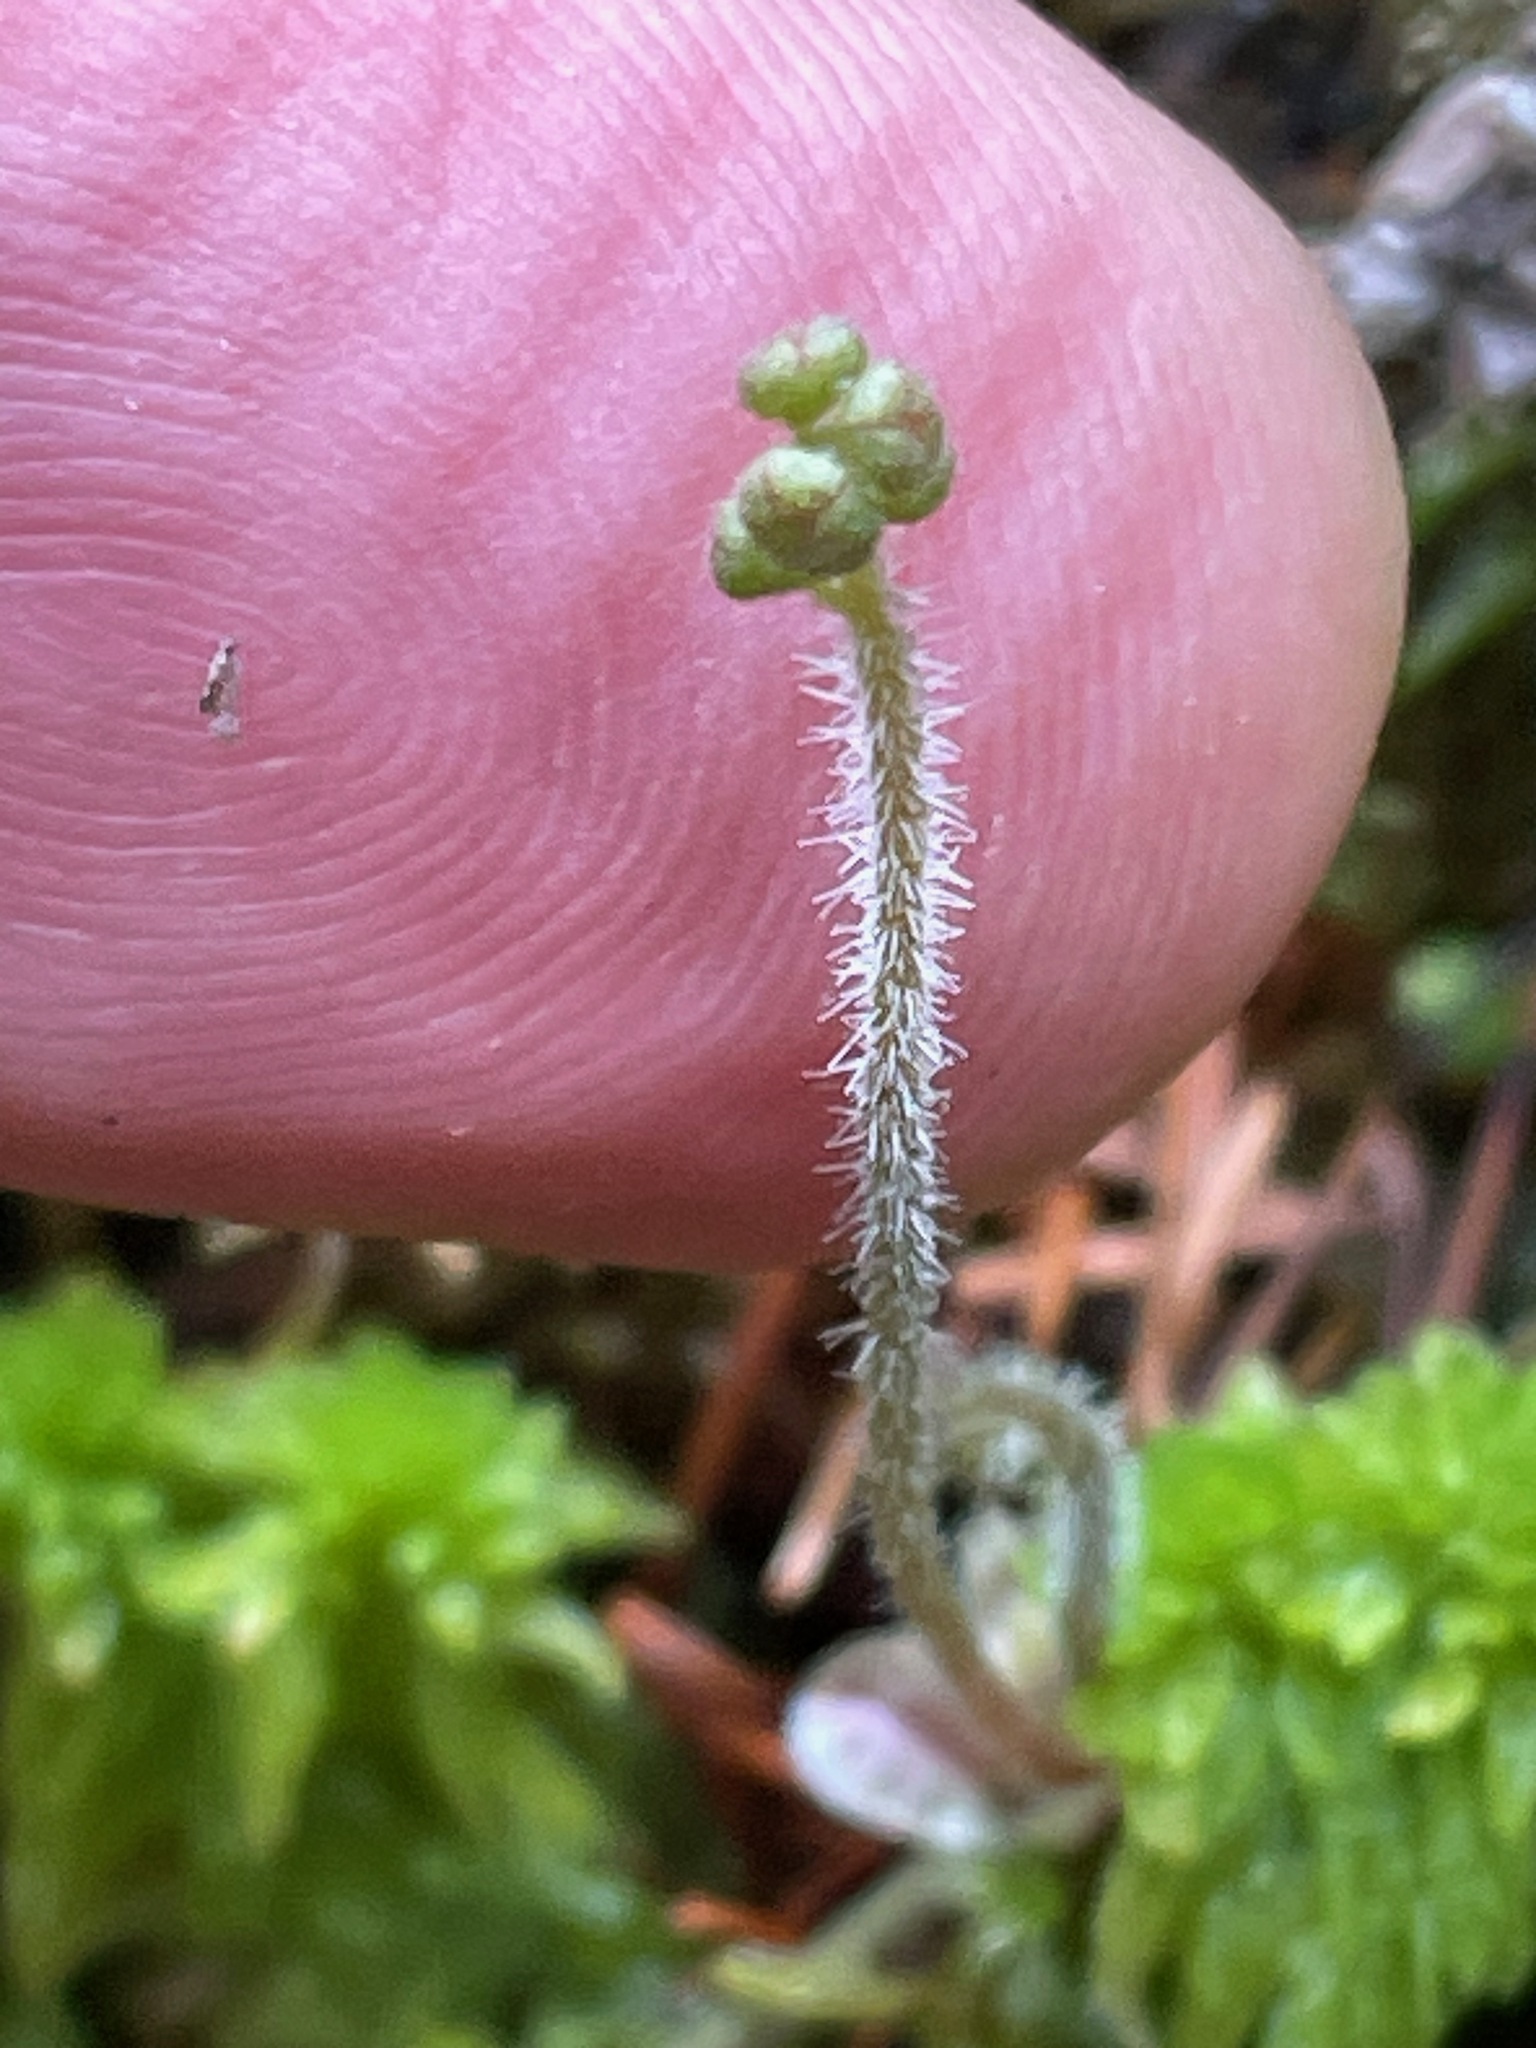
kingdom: Plantae
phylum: Tracheophyta
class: Magnoliopsida
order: Saxifragales
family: Saxifragaceae
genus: Mitella
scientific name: Mitella nuda
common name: Bare-stemmed bishop's-cap
